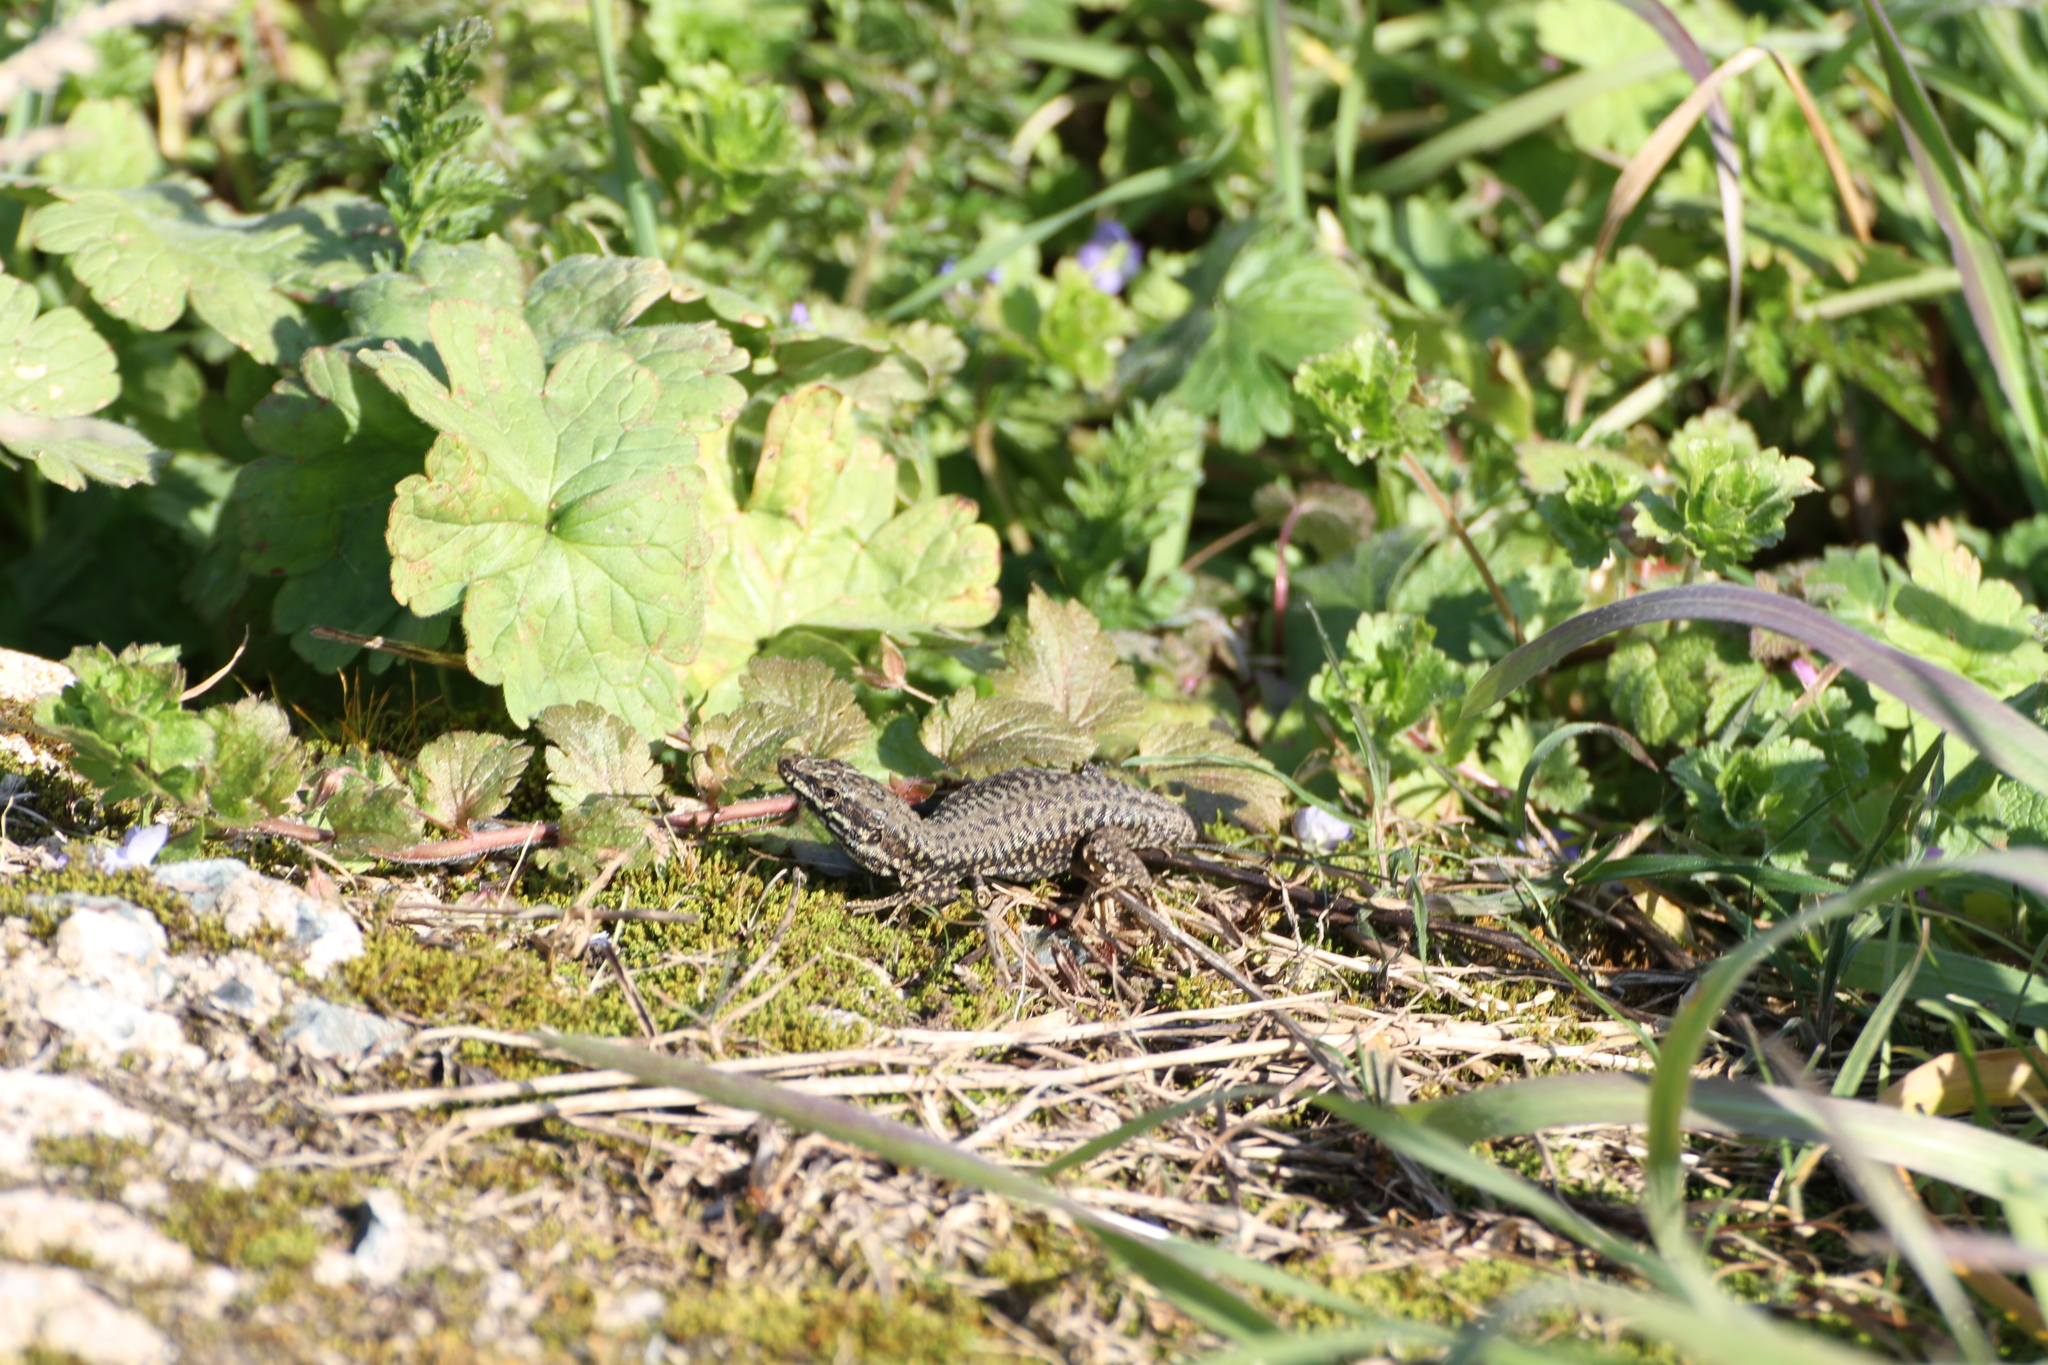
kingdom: Animalia
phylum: Chordata
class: Squamata
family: Lacertidae
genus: Podarcis
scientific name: Podarcis muralis
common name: Common wall lizard
